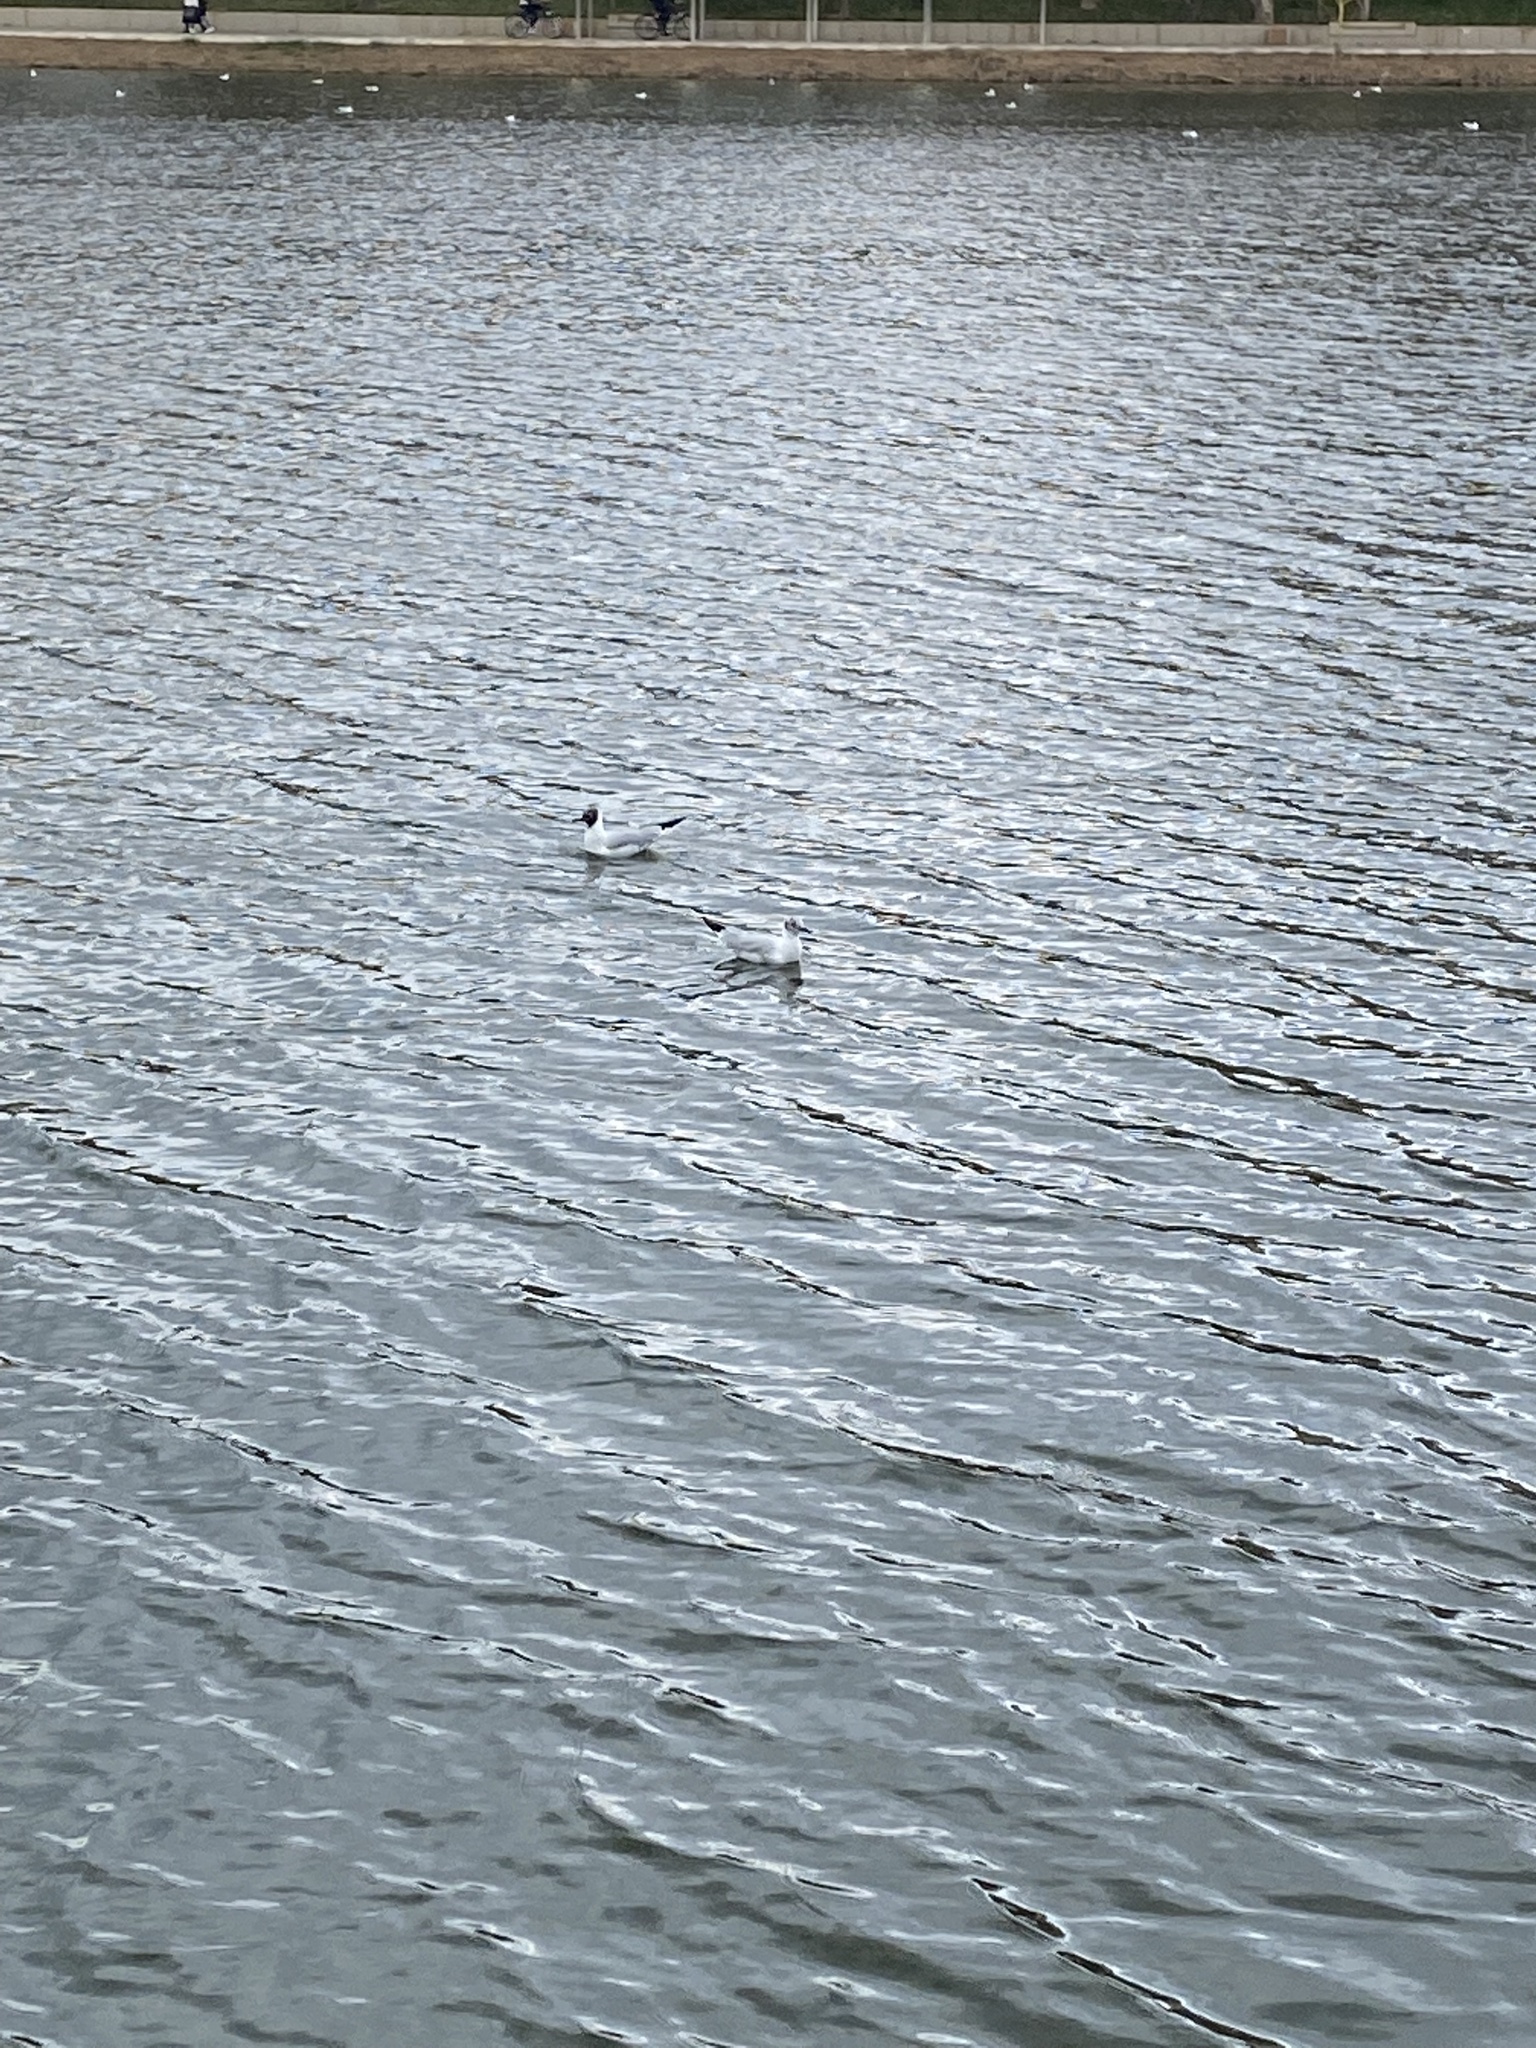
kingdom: Animalia
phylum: Chordata
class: Aves
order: Charadriiformes
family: Laridae
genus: Chroicocephalus
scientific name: Chroicocephalus ridibundus
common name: Black-headed gull
